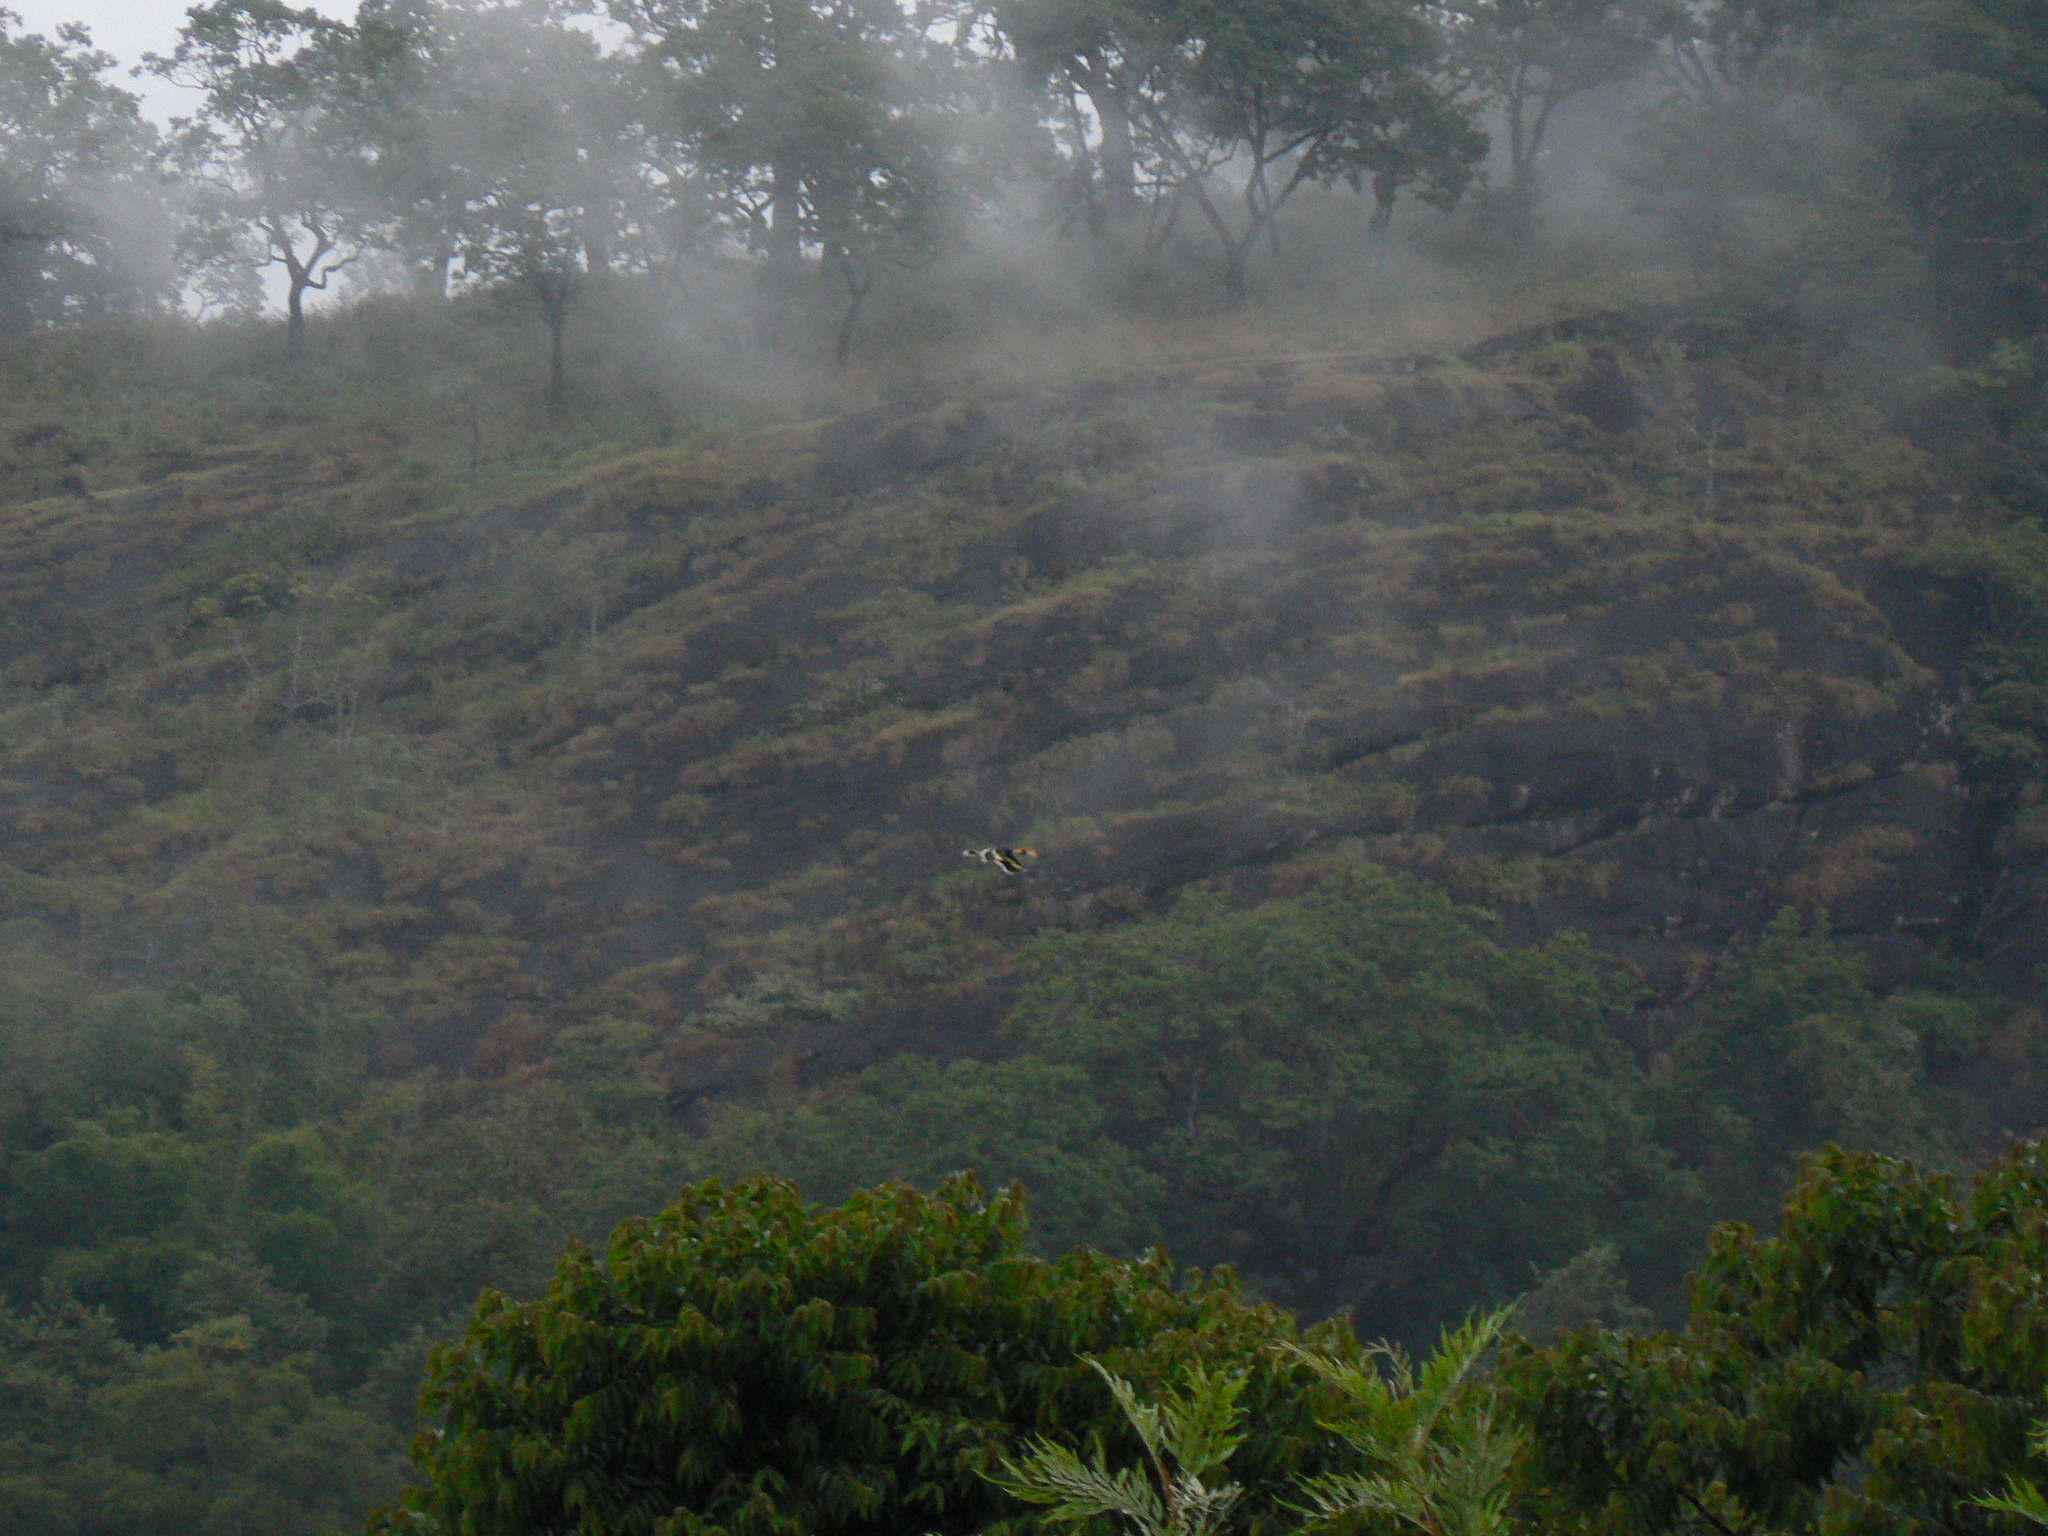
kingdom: Animalia
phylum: Chordata
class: Aves
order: Bucerotiformes
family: Bucerotidae
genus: Buceros
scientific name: Buceros bicornis
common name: Great hornbill
